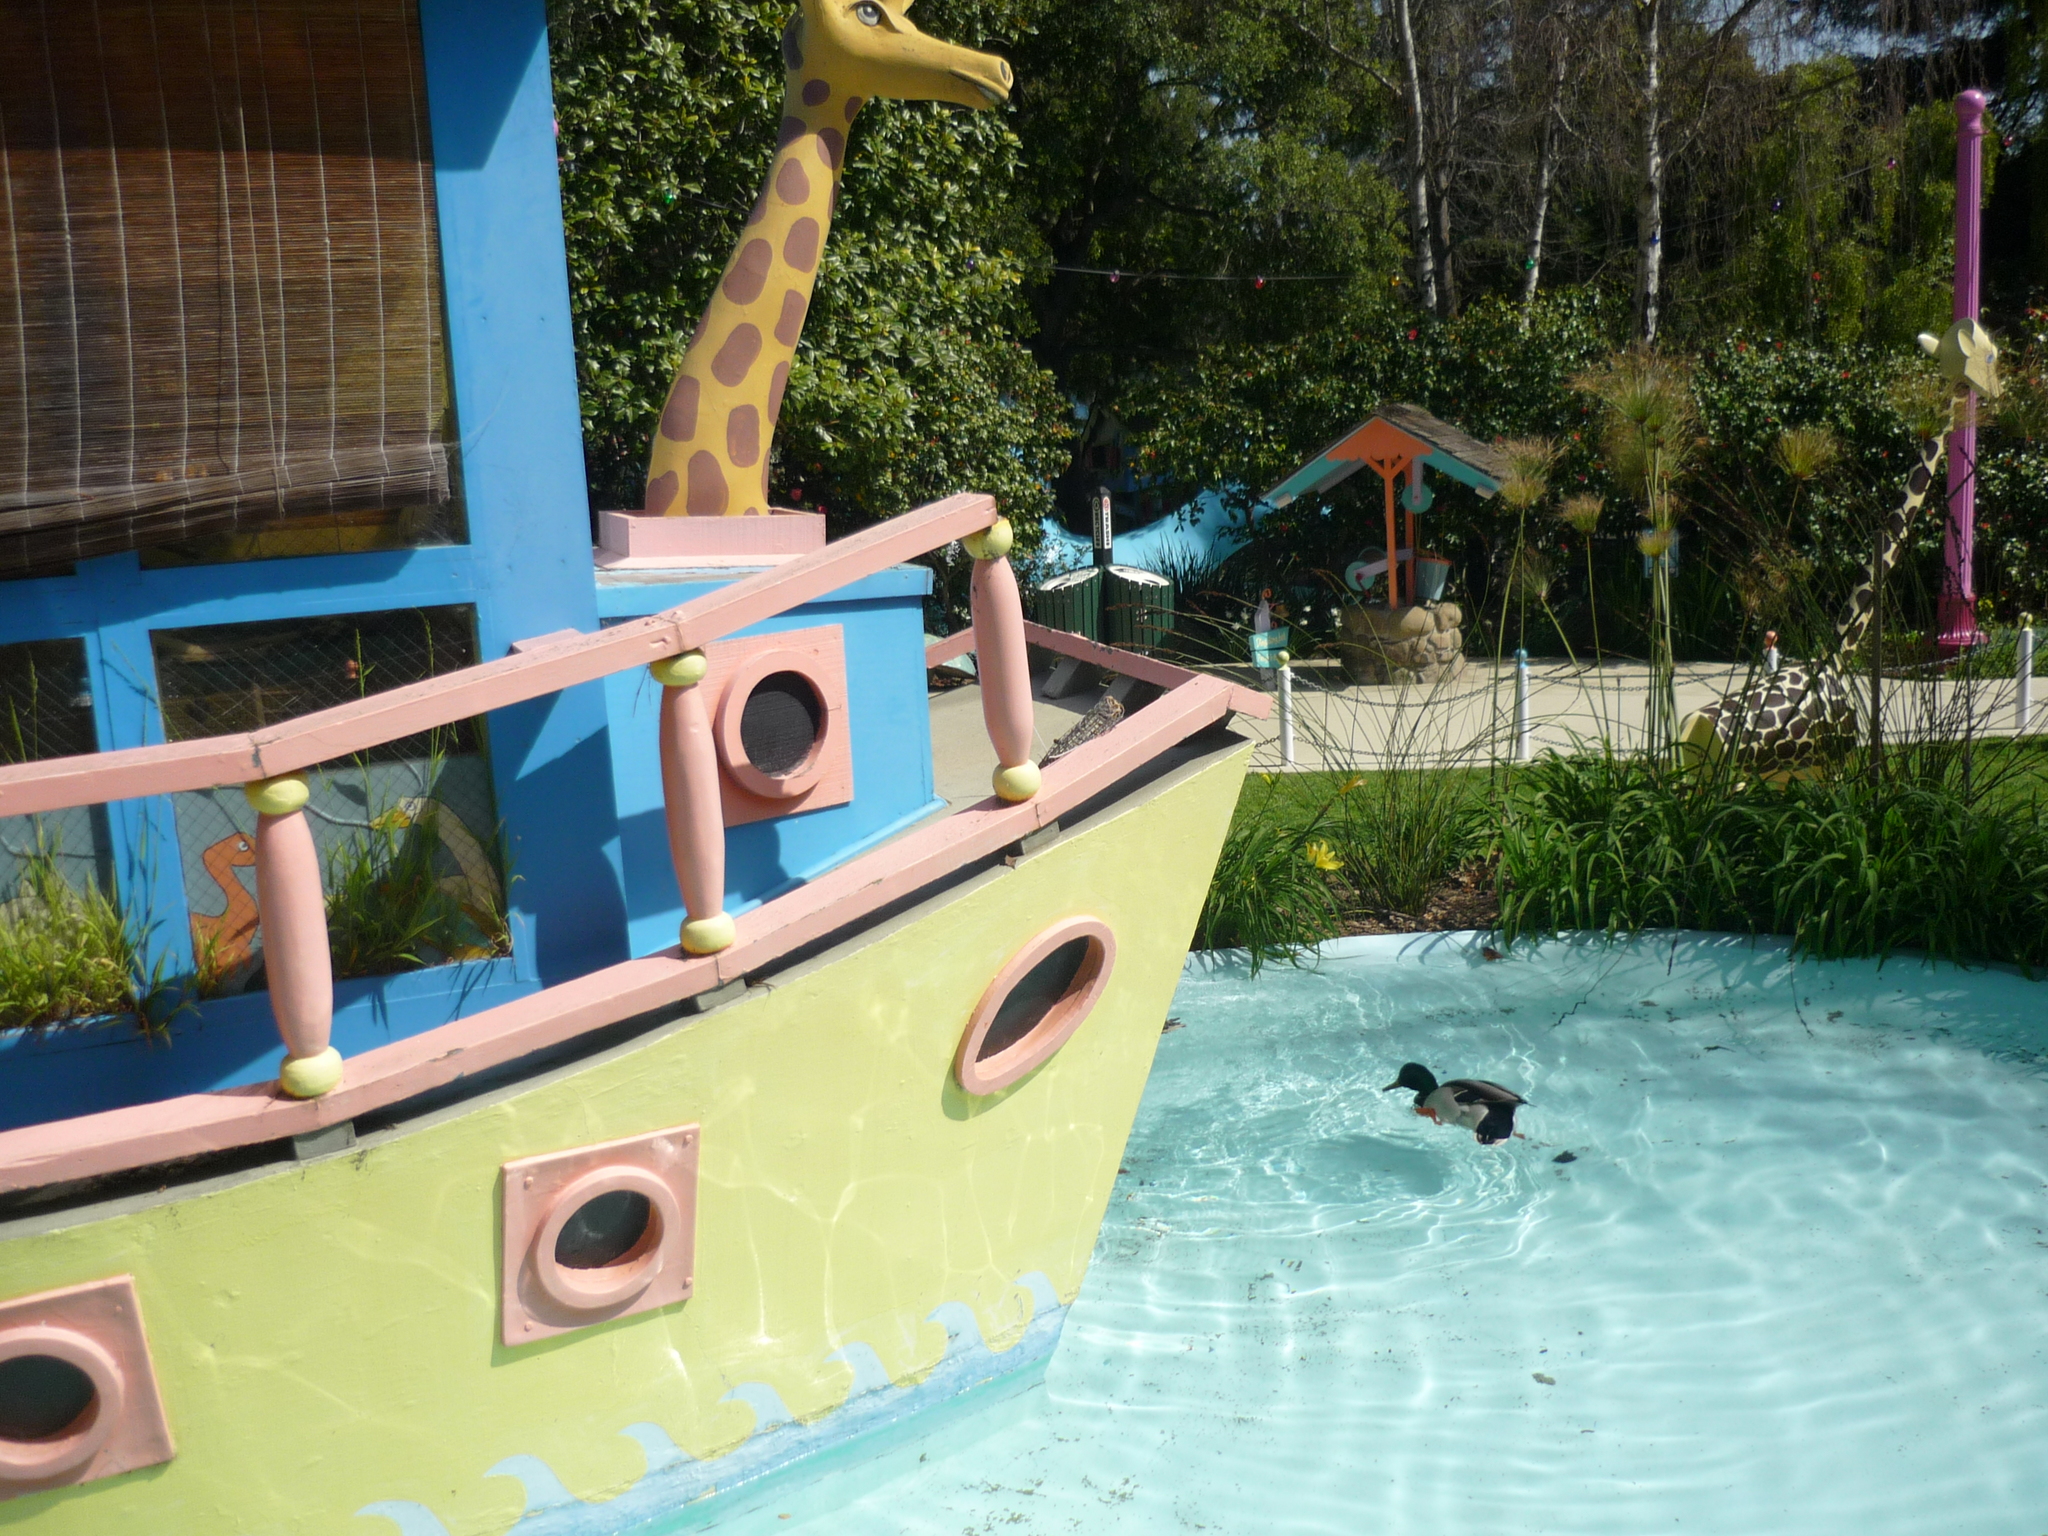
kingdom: Animalia
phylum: Chordata
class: Aves
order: Anseriformes
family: Anatidae
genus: Anas
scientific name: Anas platyrhynchos
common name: Mallard
